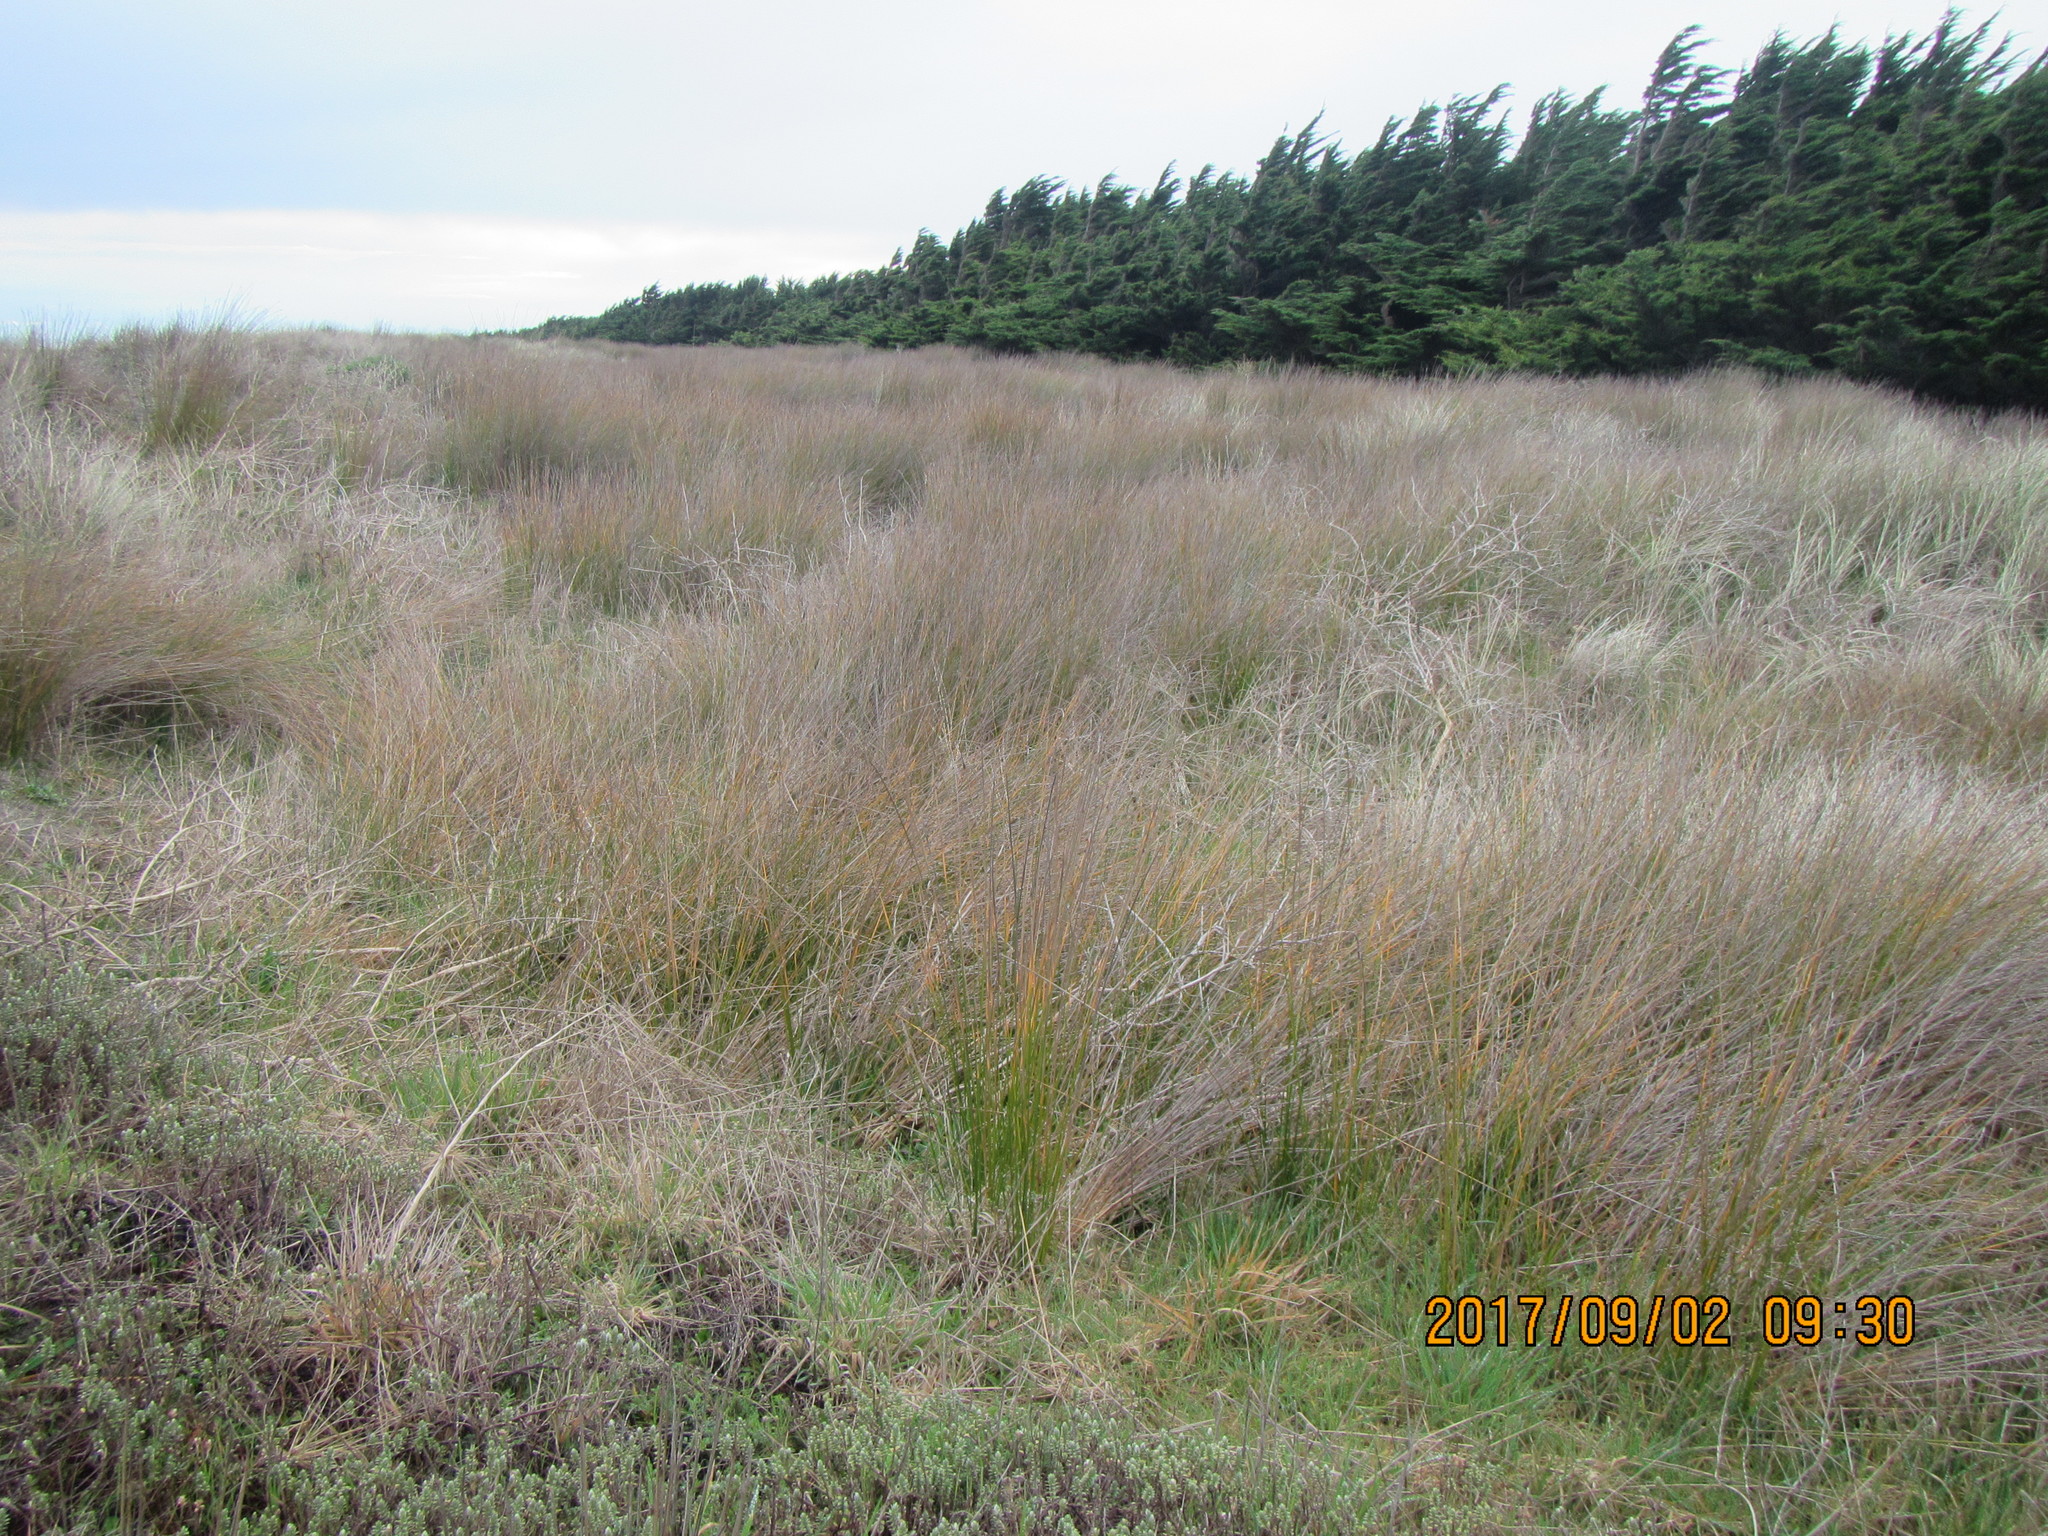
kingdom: Plantae
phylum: Tracheophyta
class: Liliopsida
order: Poales
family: Cyperaceae
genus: Ficinia
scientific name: Ficinia nodosa
